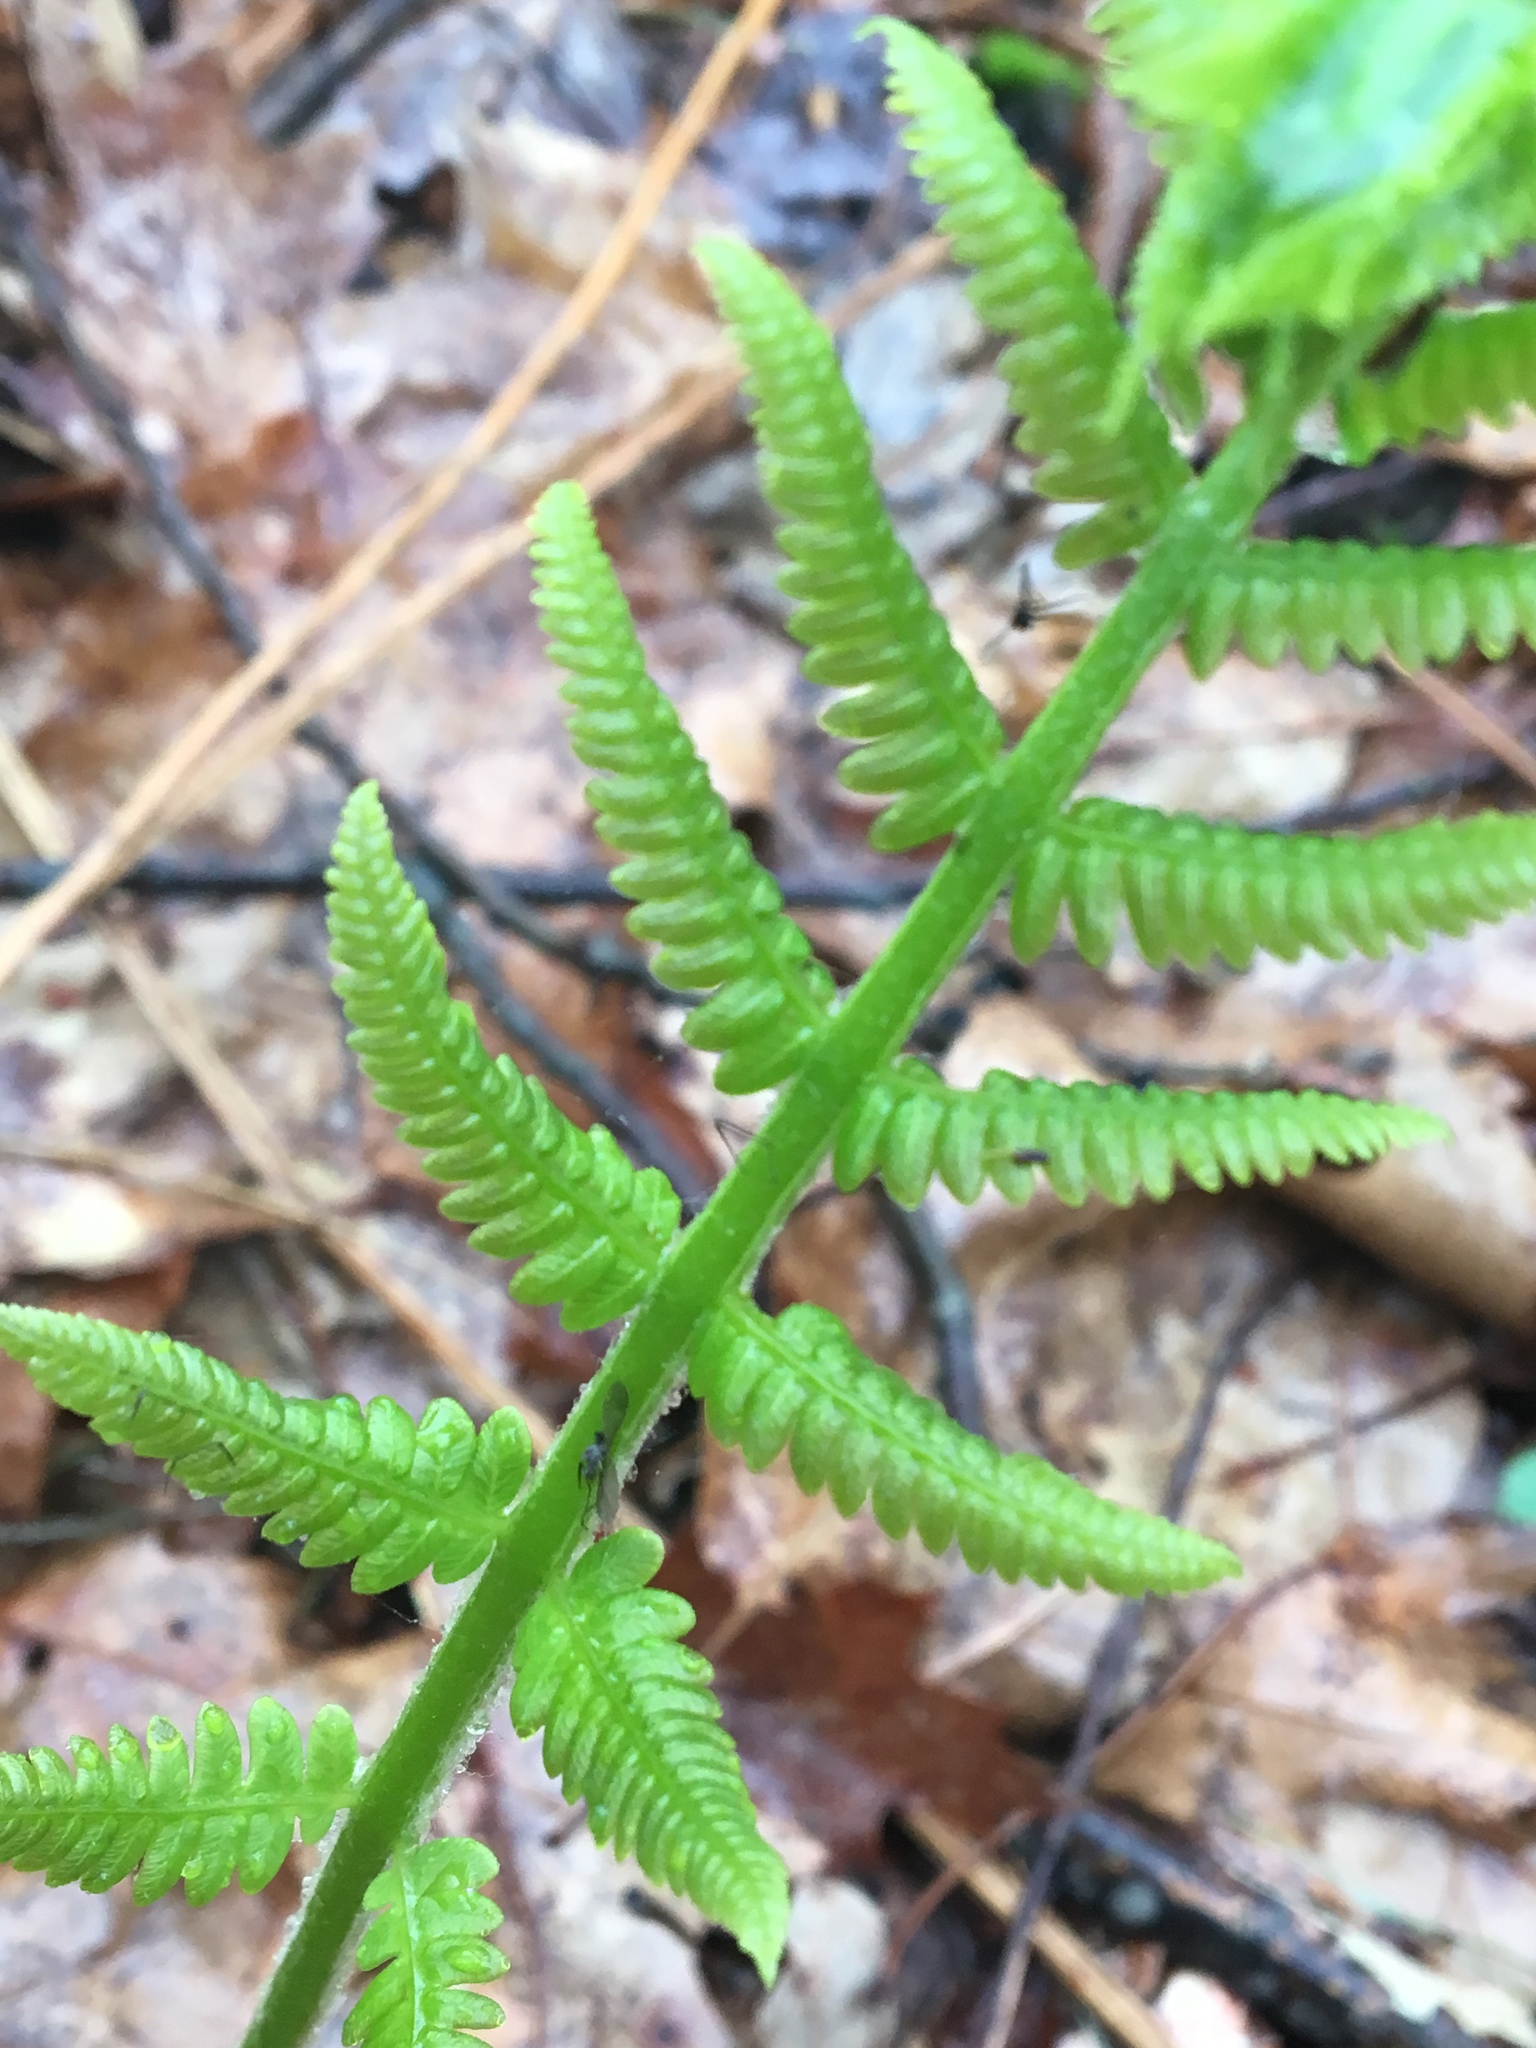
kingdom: Plantae
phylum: Tracheophyta
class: Polypodiopsida
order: Osmundales
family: Osmundaceae
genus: Osmundastrum
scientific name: Osmundastrum cinnamomeum
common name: Cinnamon fern
